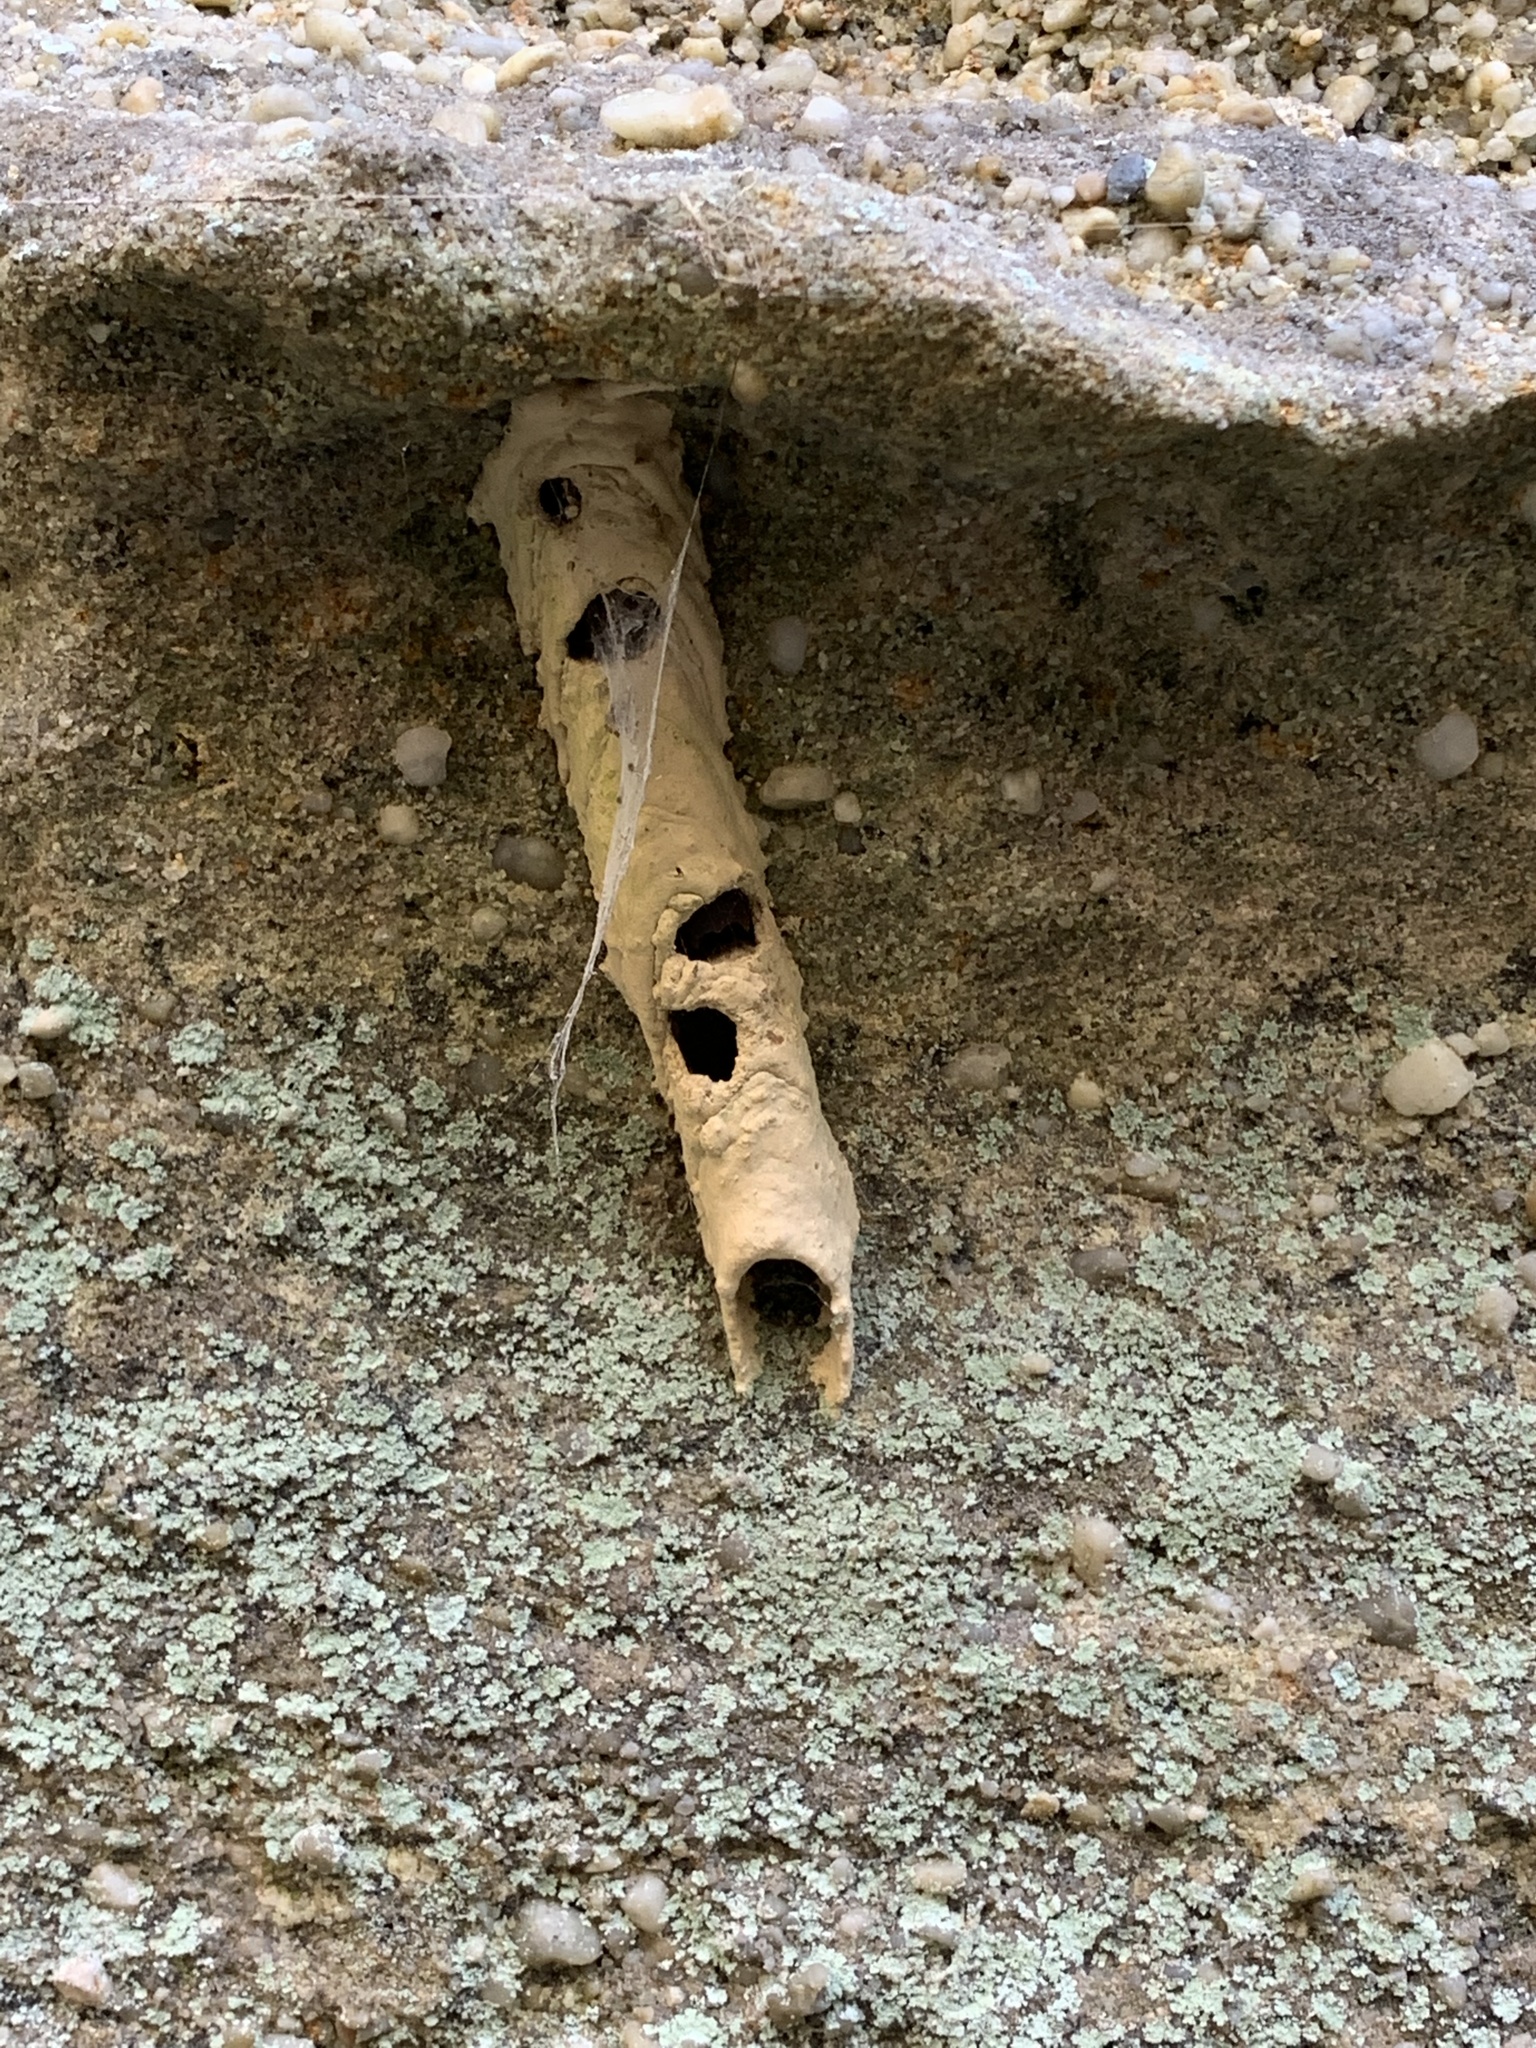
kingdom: Animalia
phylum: Arthropoda
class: Insecta
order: Hymenoptera
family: Crabronidae
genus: Trypoxylon
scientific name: Trypoxylon politum
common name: Organ-pipe mud-dauber wasp
